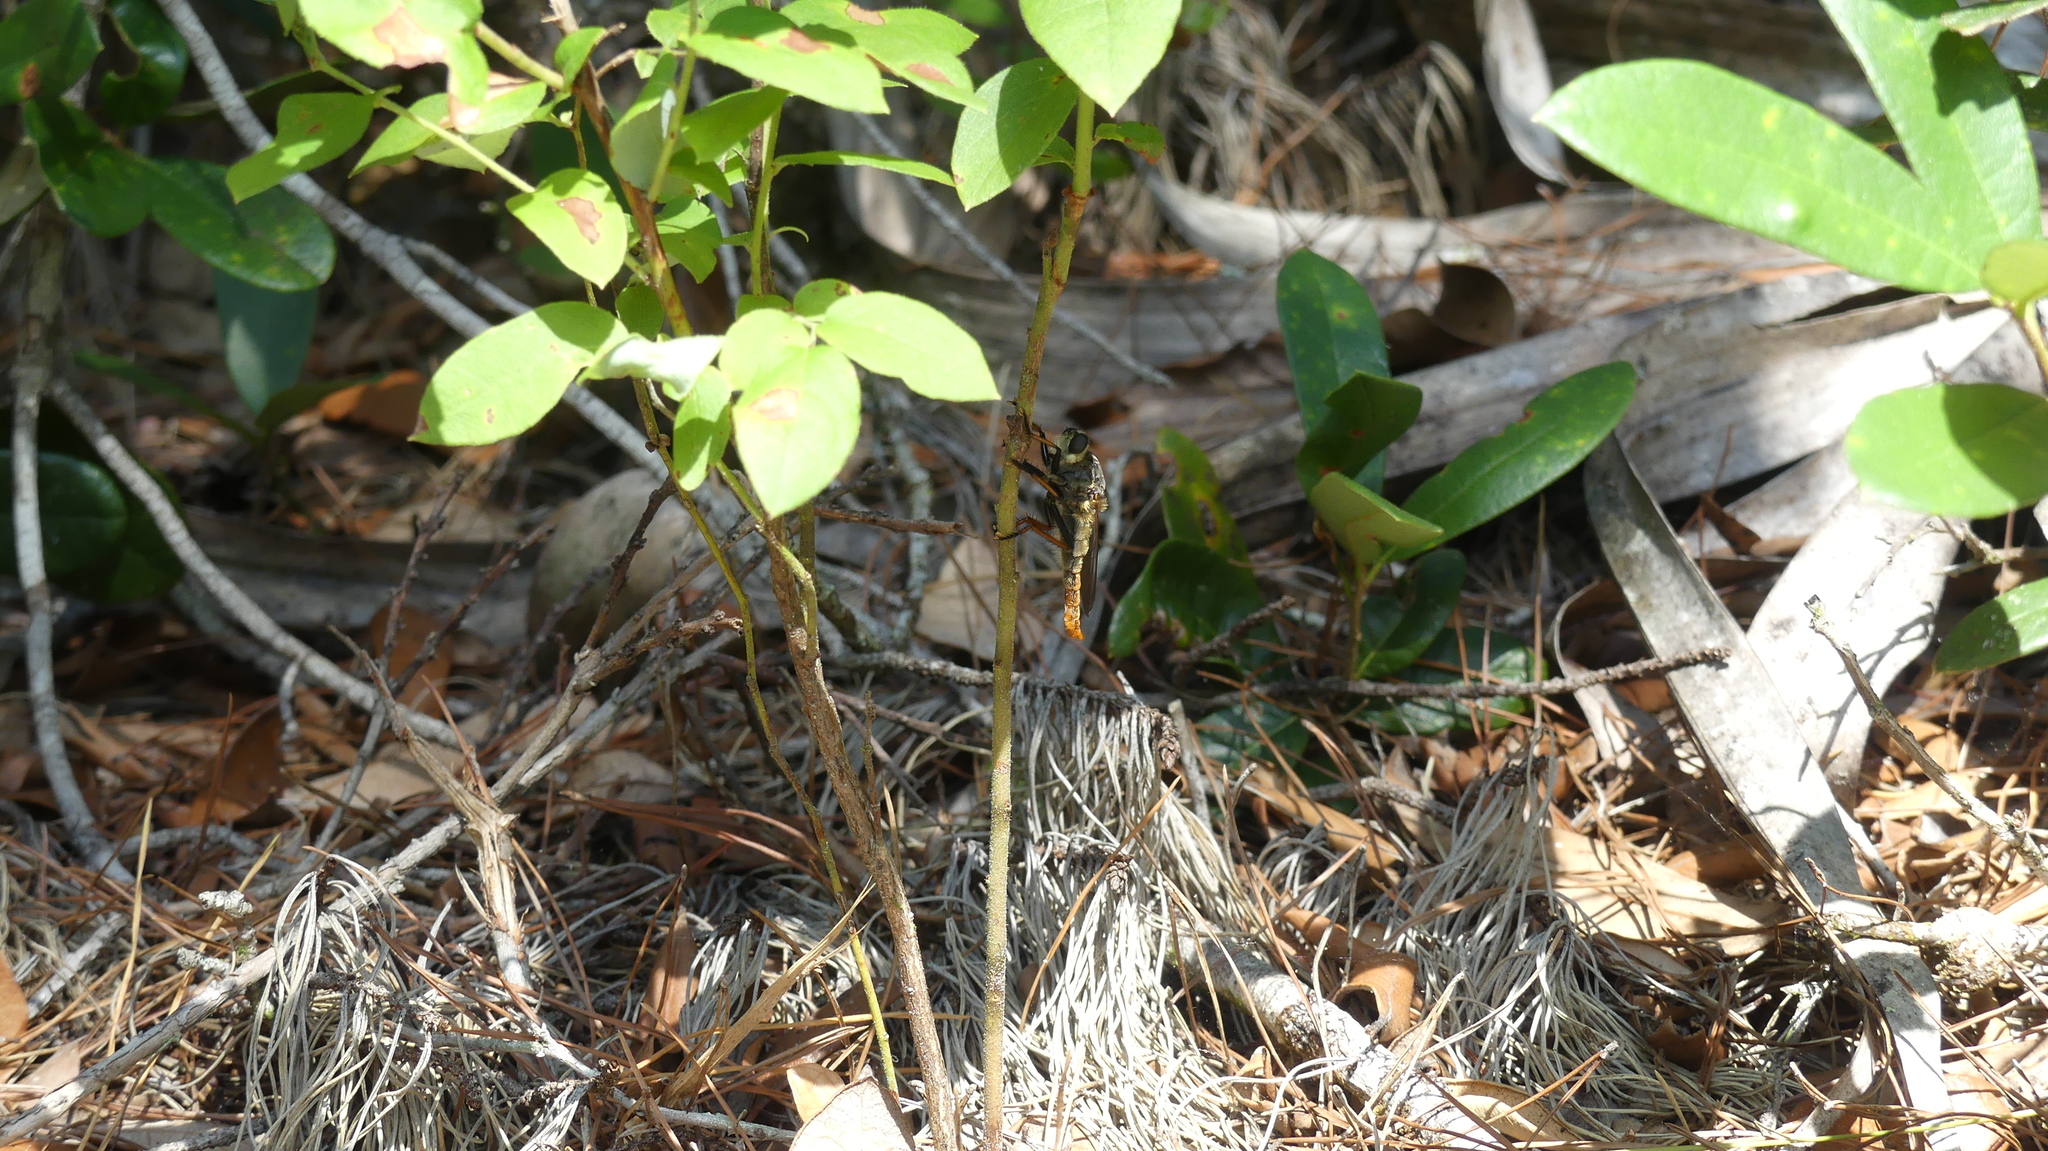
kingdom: Animalia
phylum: Arthropoda
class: Insecta
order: Diptera
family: Asilidae
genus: Proctacanthus
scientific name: Proctacanthus fulviventris
